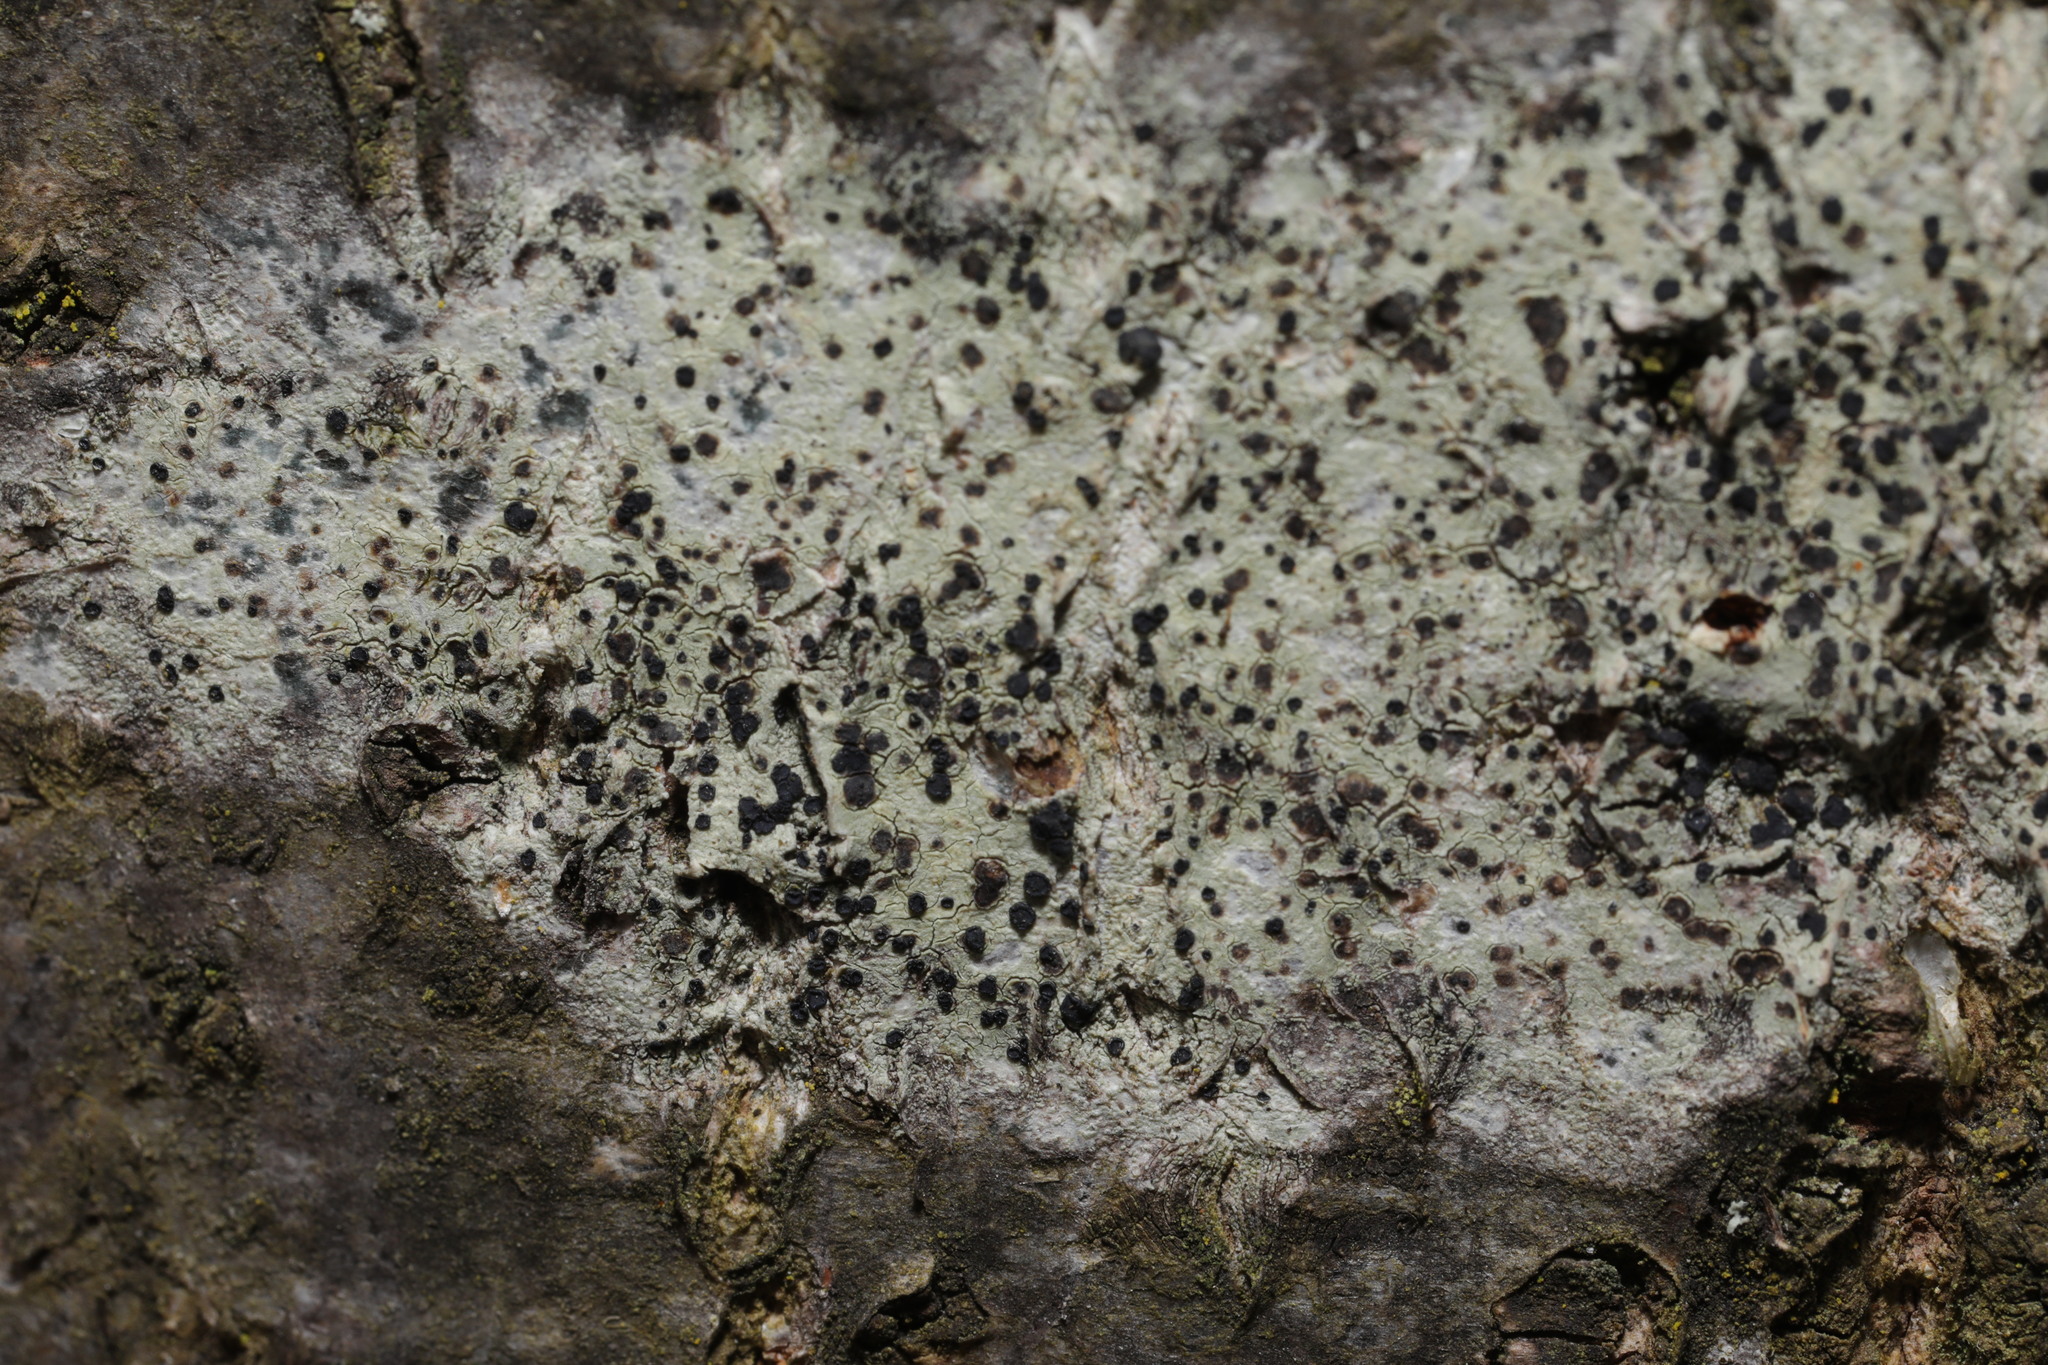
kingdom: Fungi
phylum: Ascomycota
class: Lecanoromycetes
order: Lecanorales
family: Lecanoraceae
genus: Lecidella
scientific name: Lecidella elaeochroma
